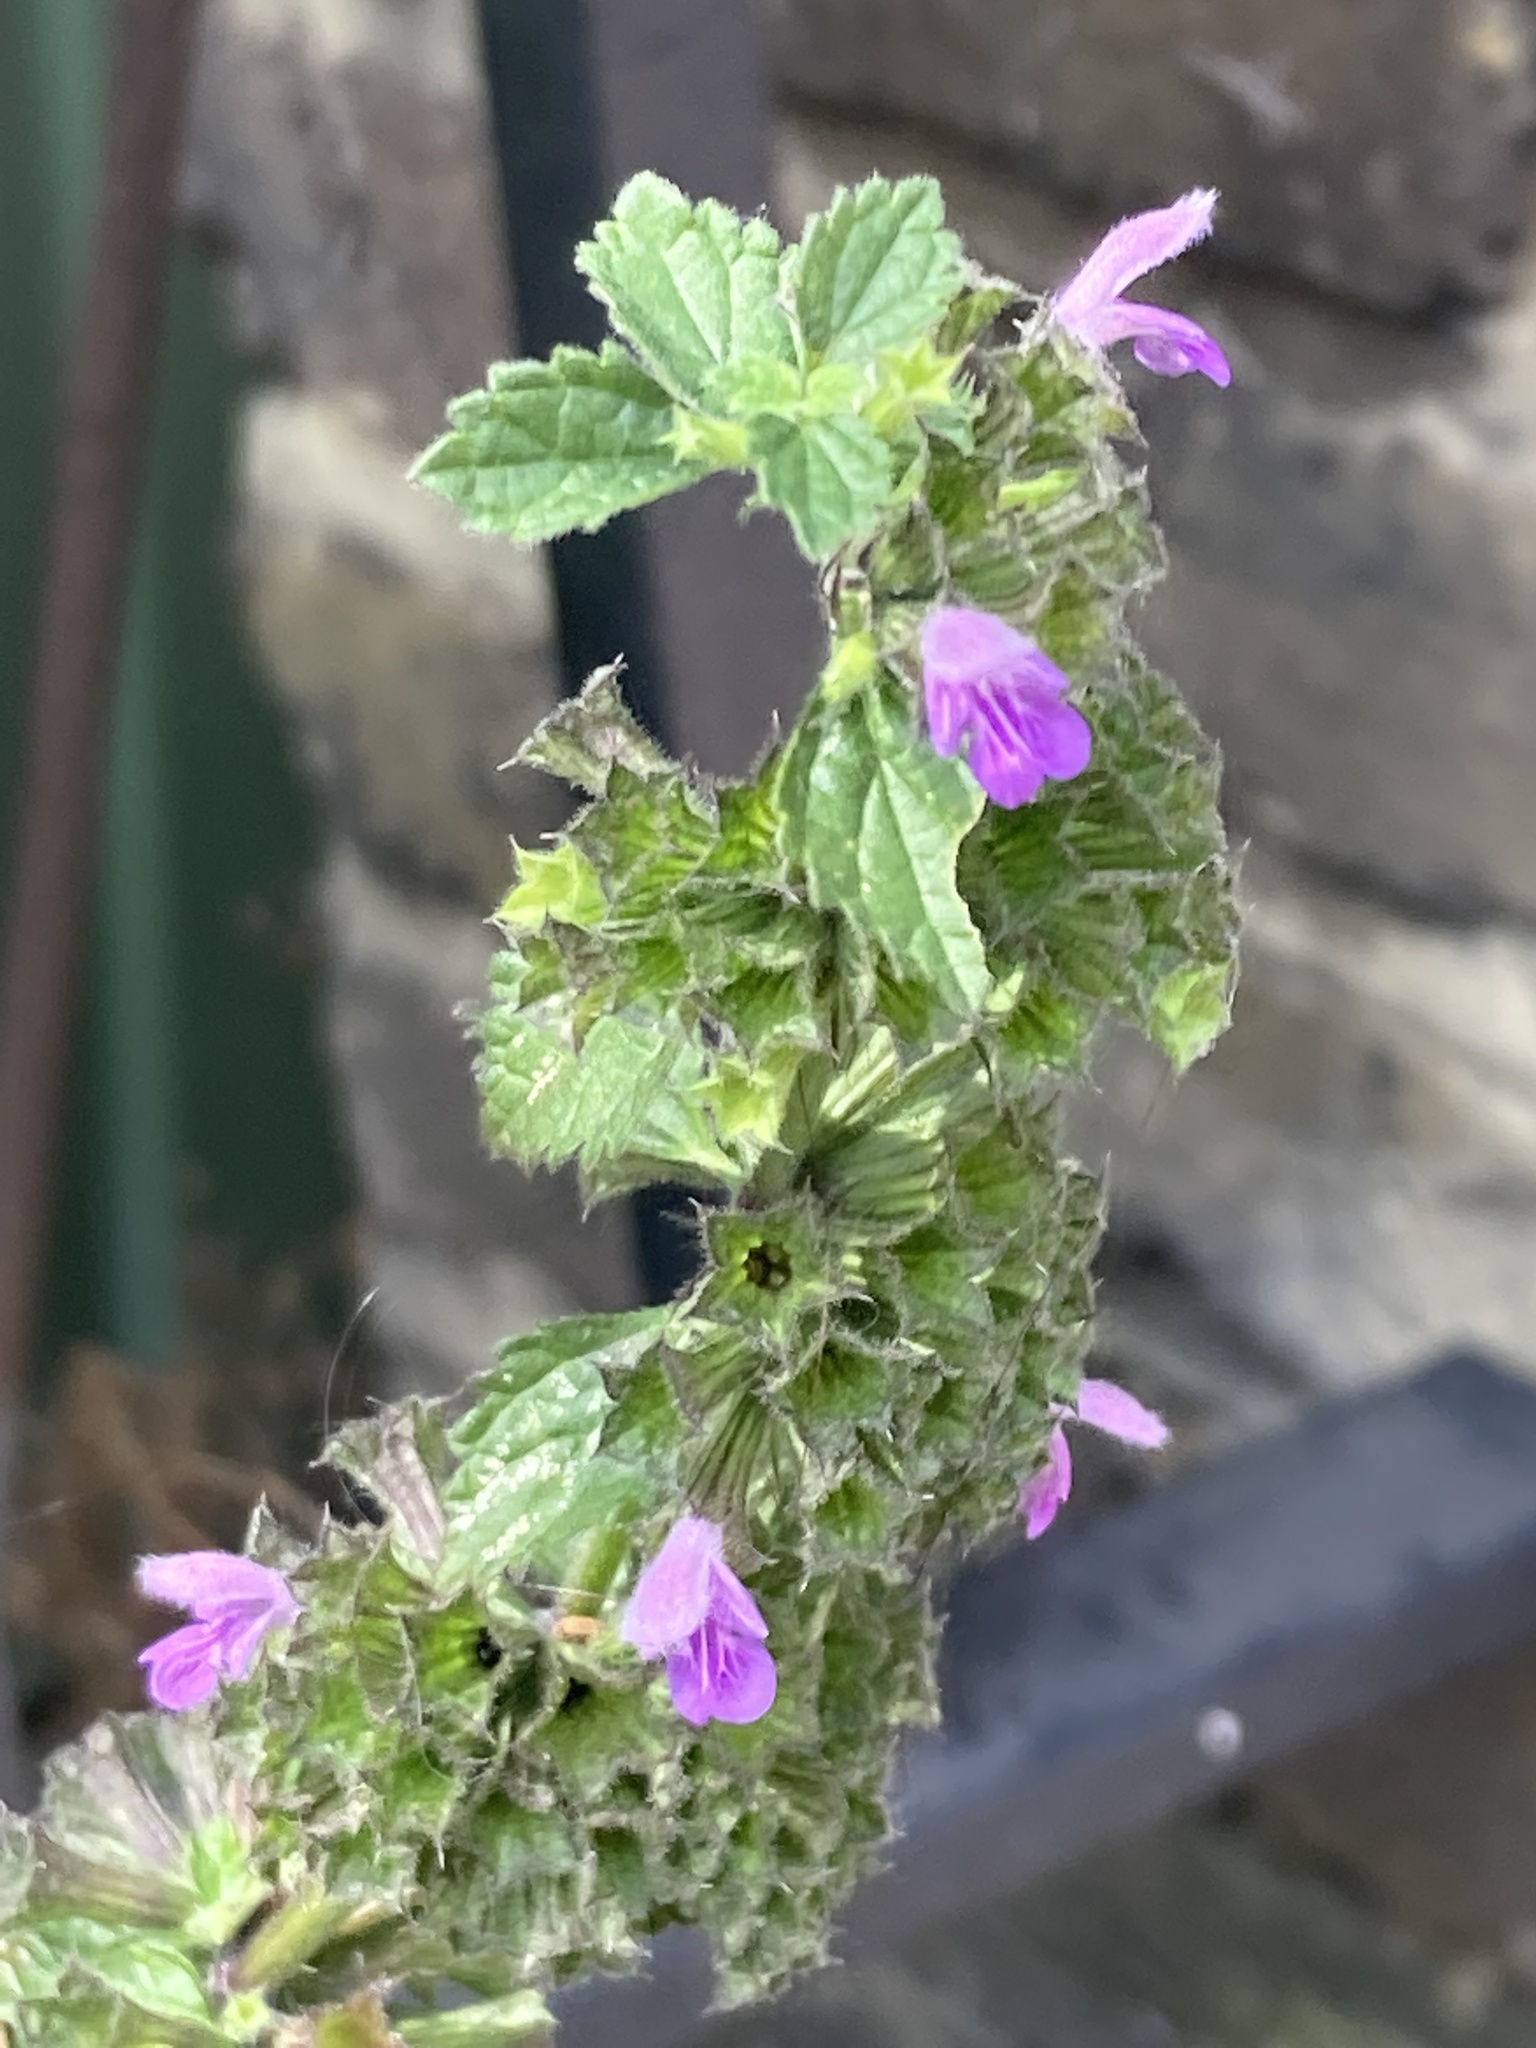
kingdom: Plantae
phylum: Tracheophyta
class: Magnoliopsida
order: Lamiales
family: Lamiaceae
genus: Ballota
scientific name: Ballota nigra
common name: Black horehound
